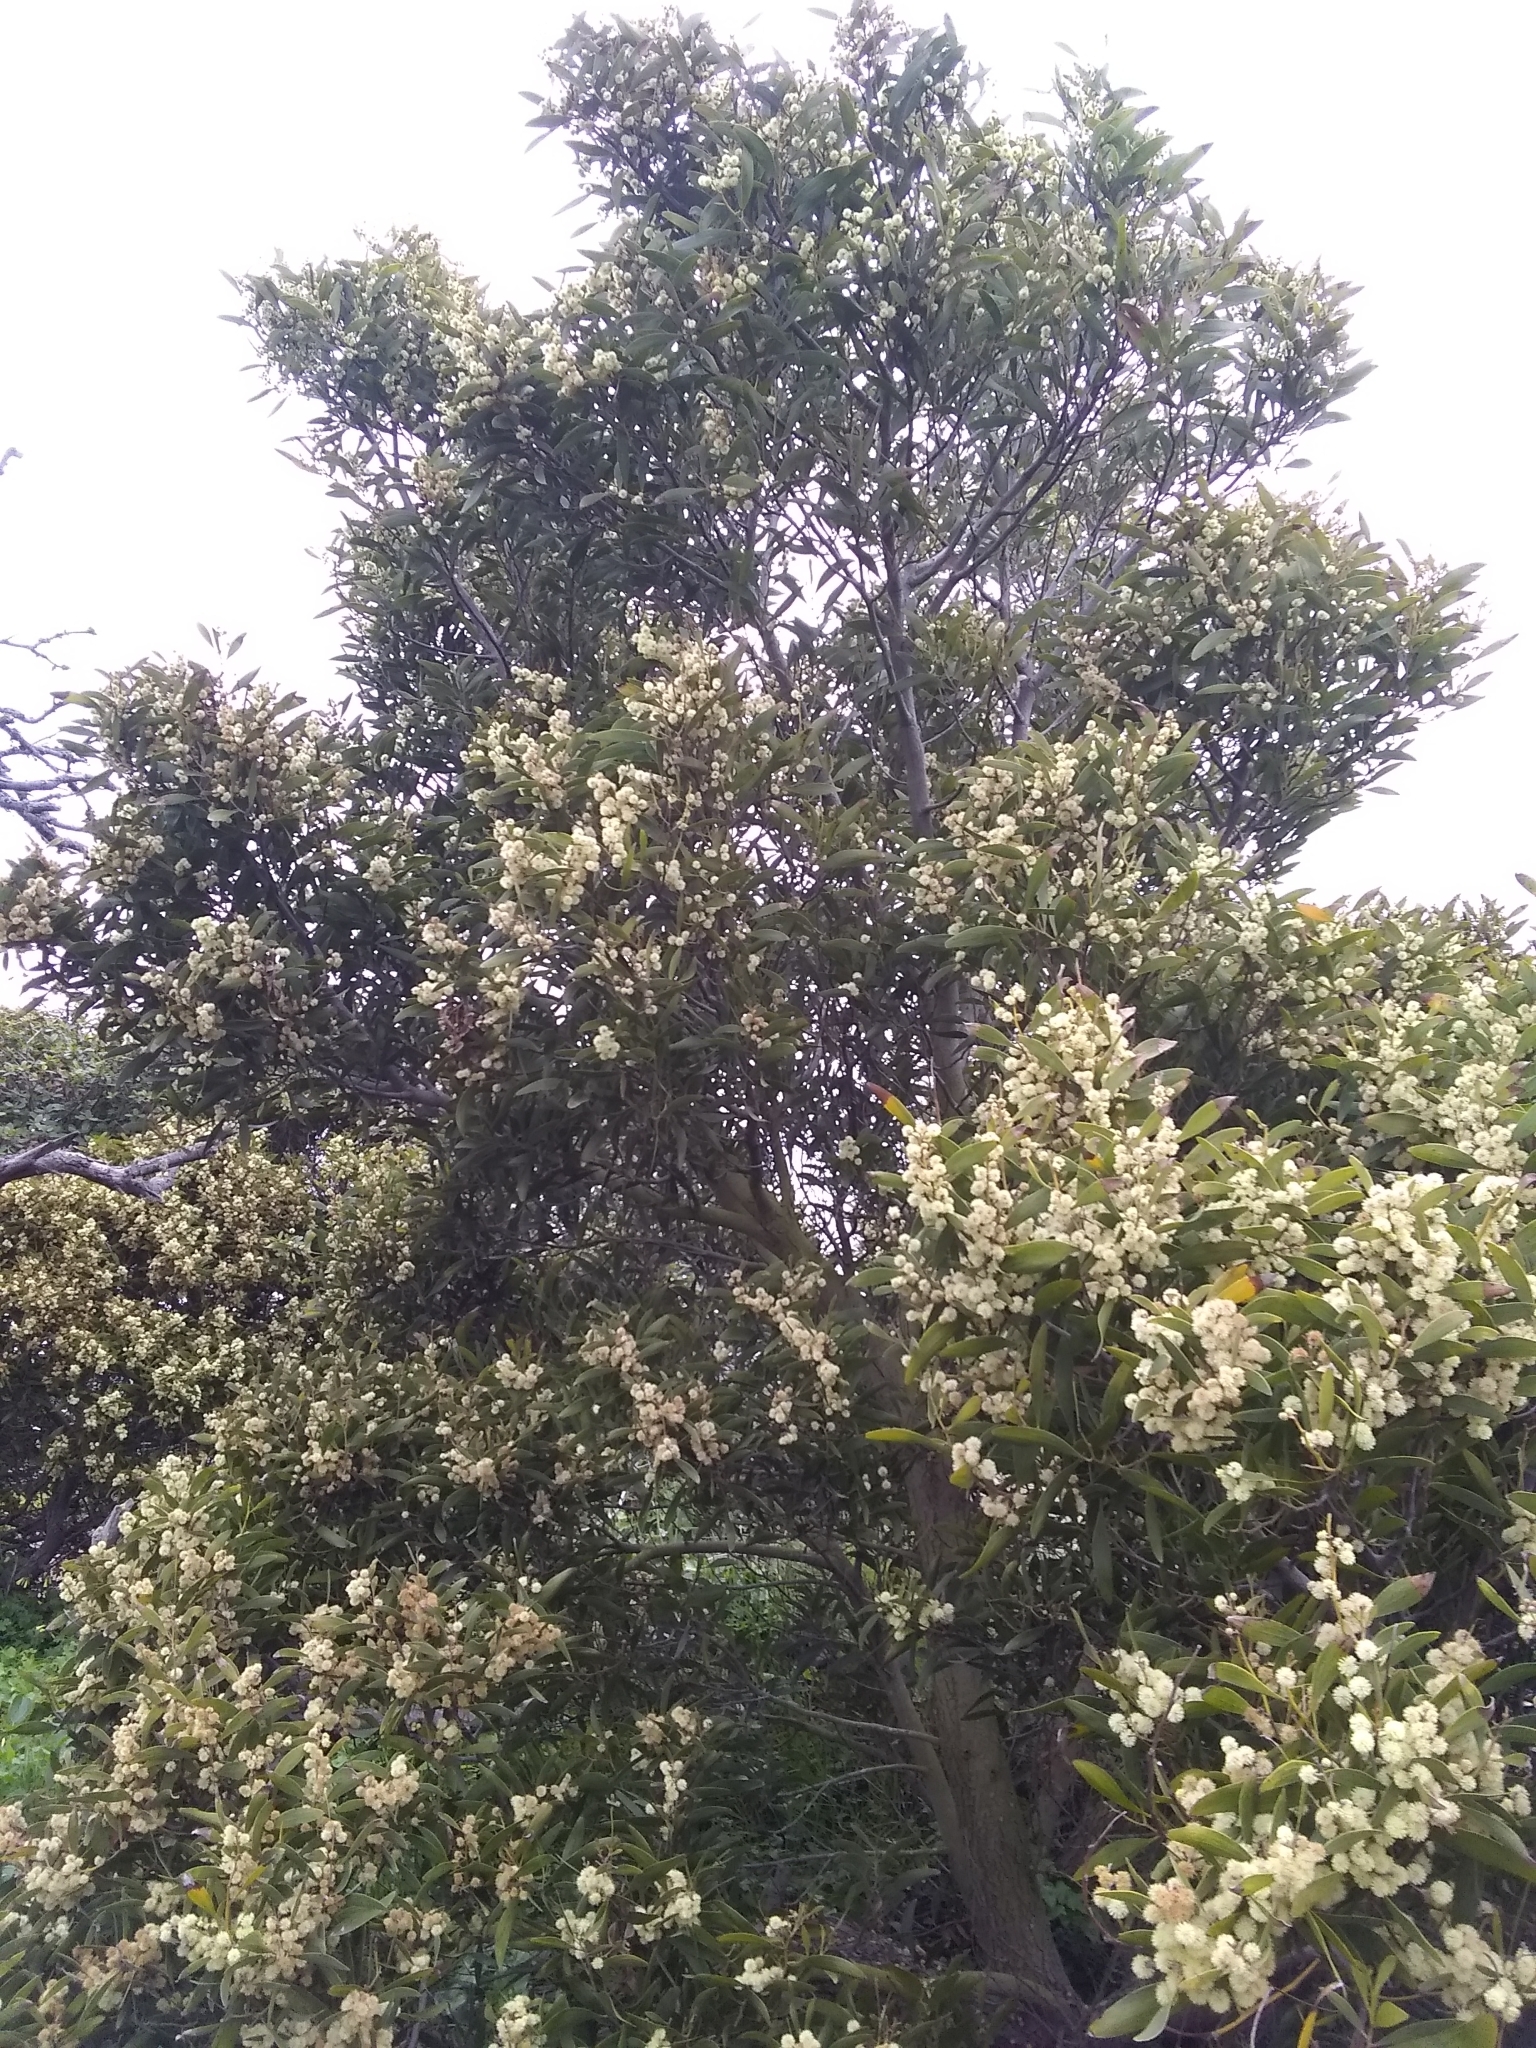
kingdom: Plantae
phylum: Tracheophyta
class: Magnoliopsida
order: Fabales
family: Fabaceae
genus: Acacia
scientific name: Acacia melanoxylon
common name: Blackwood
